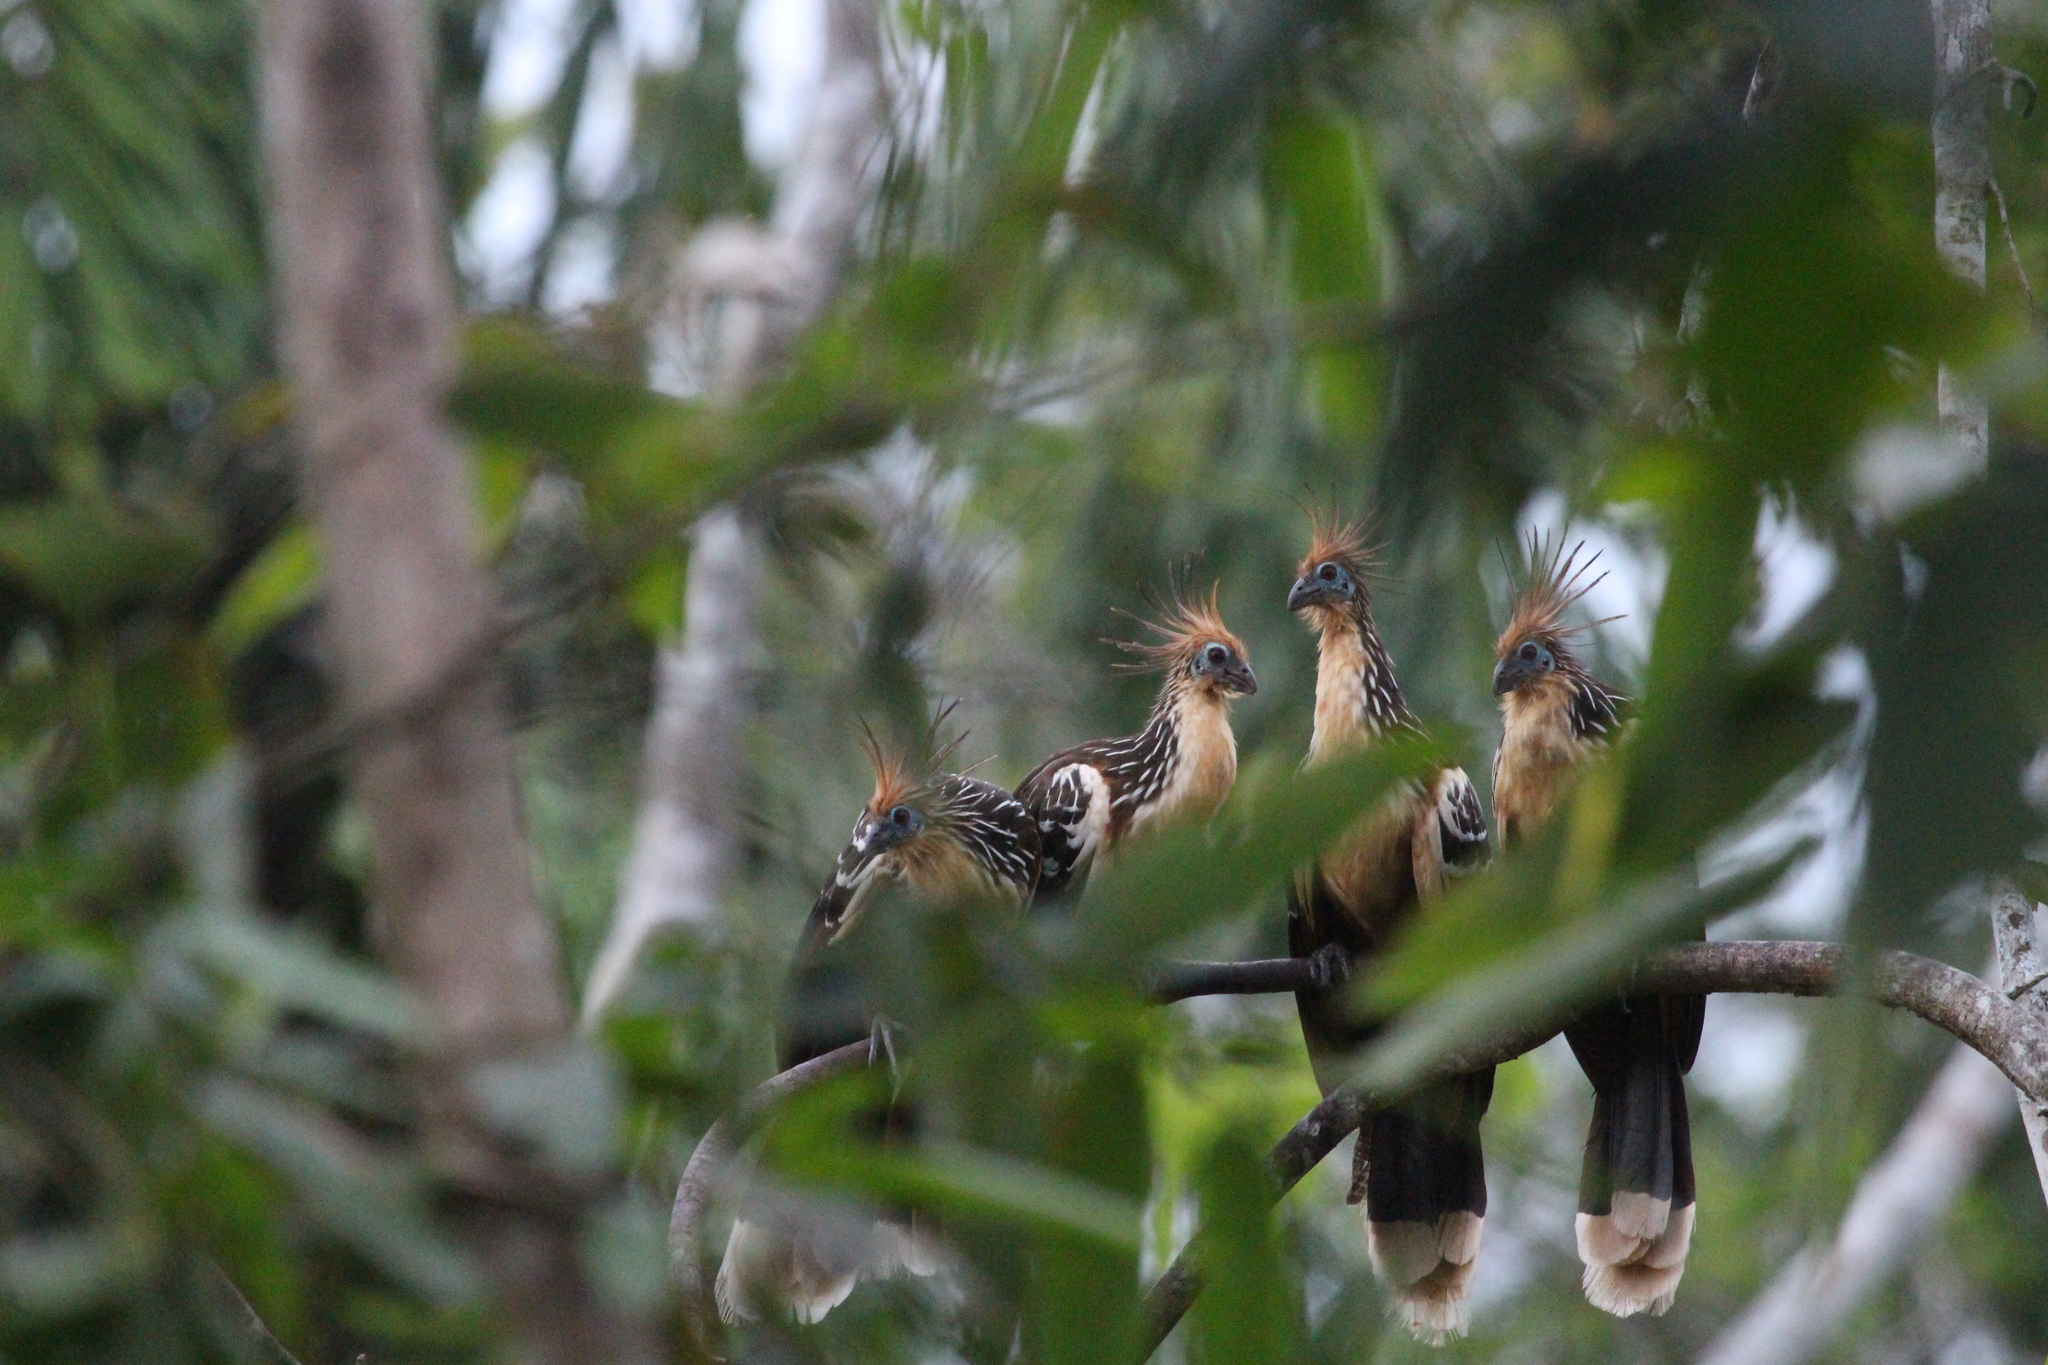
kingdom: Animalia
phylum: Chordata
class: Aves
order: Opisthocomiformes
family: Opisthocomidae
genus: Opisthocomus
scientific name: Opisthocomus hoazin
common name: Hoatzin
